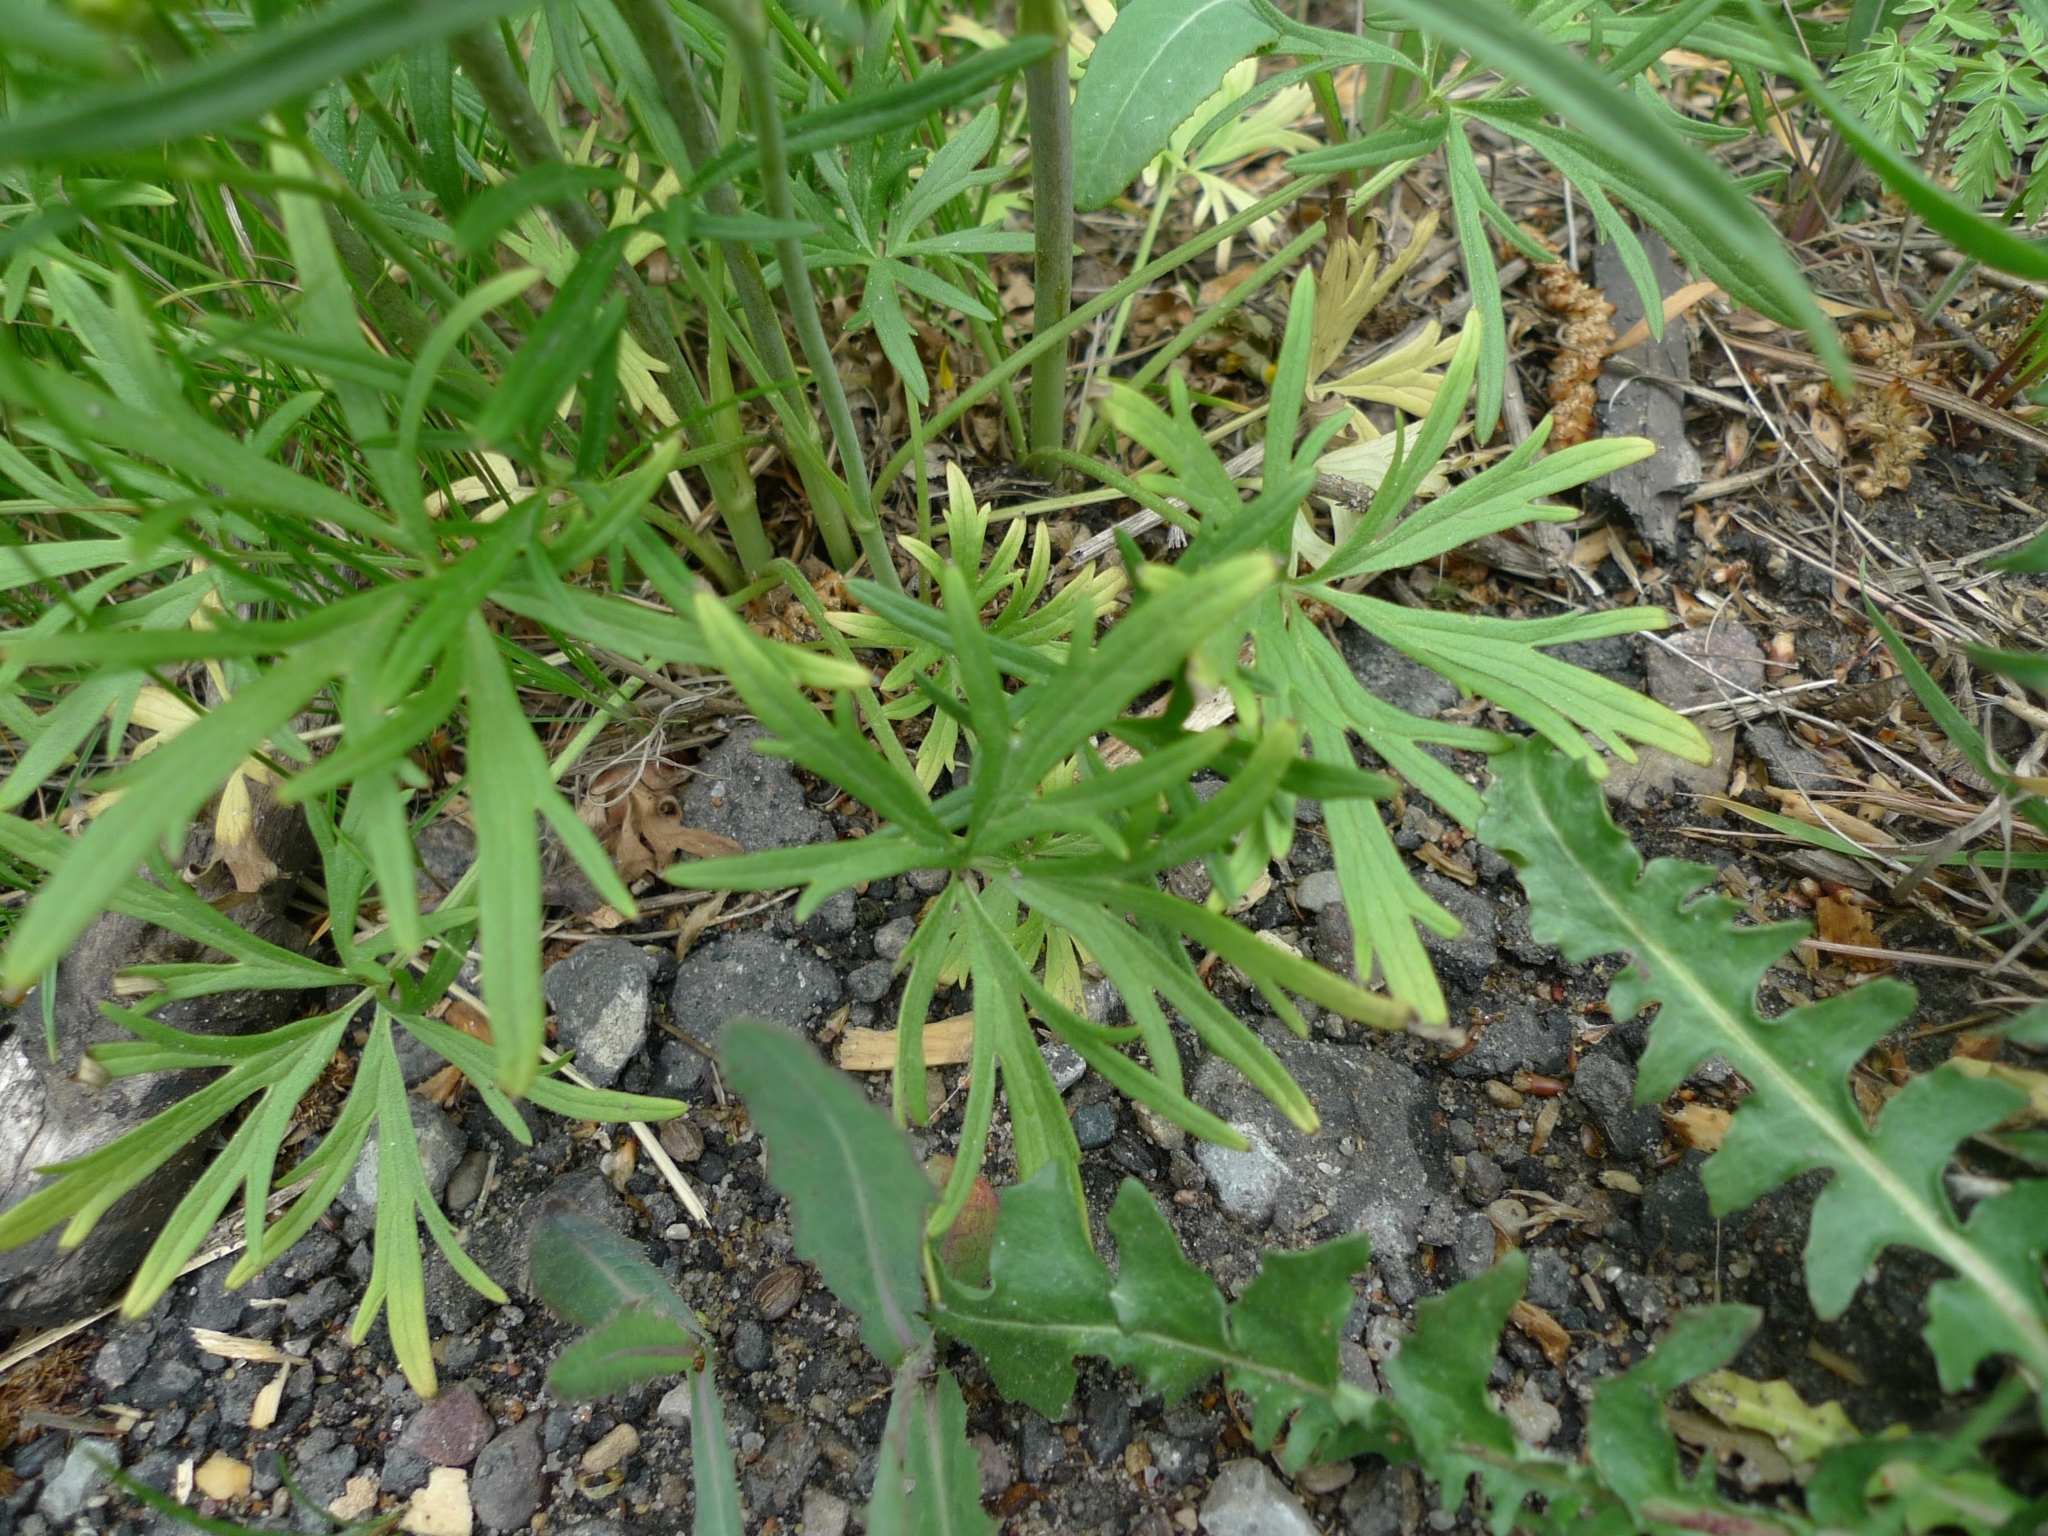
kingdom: Plantae
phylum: Tracheophyta
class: Magnoliopsida
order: Ranunculales
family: Ranunculaceae
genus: Ranunculus
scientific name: Ranunculus acris
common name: Meadow buttercup
